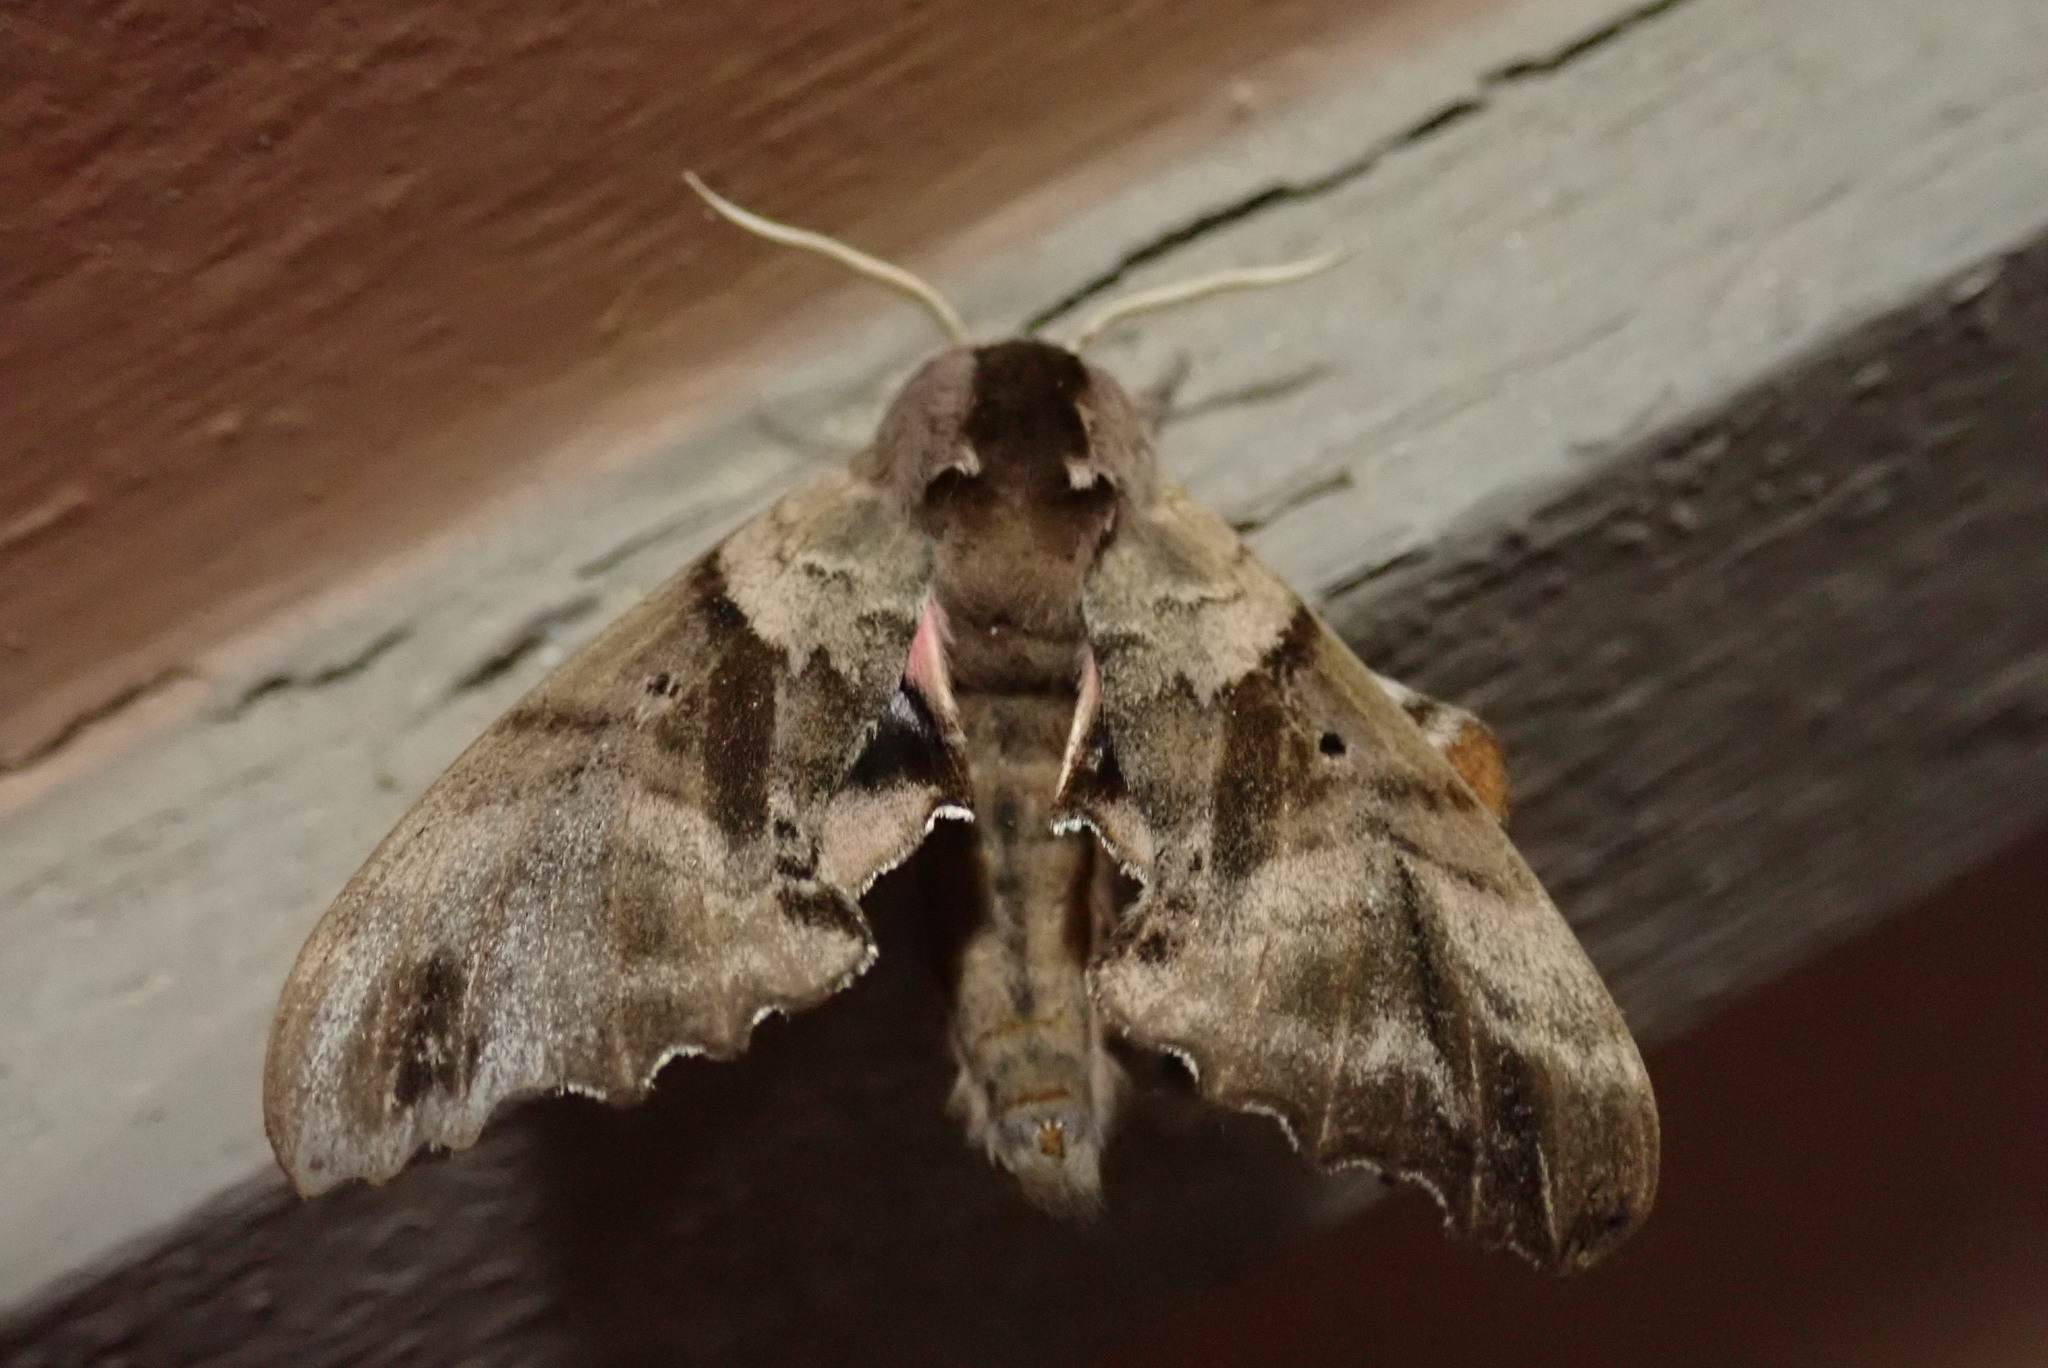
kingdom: Animalia
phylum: Arthropoda
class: Insecta
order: Lepidoptera
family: Sphingidae
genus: Paonias
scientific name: Paonias excaecata
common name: Blind-eyed sphinx
